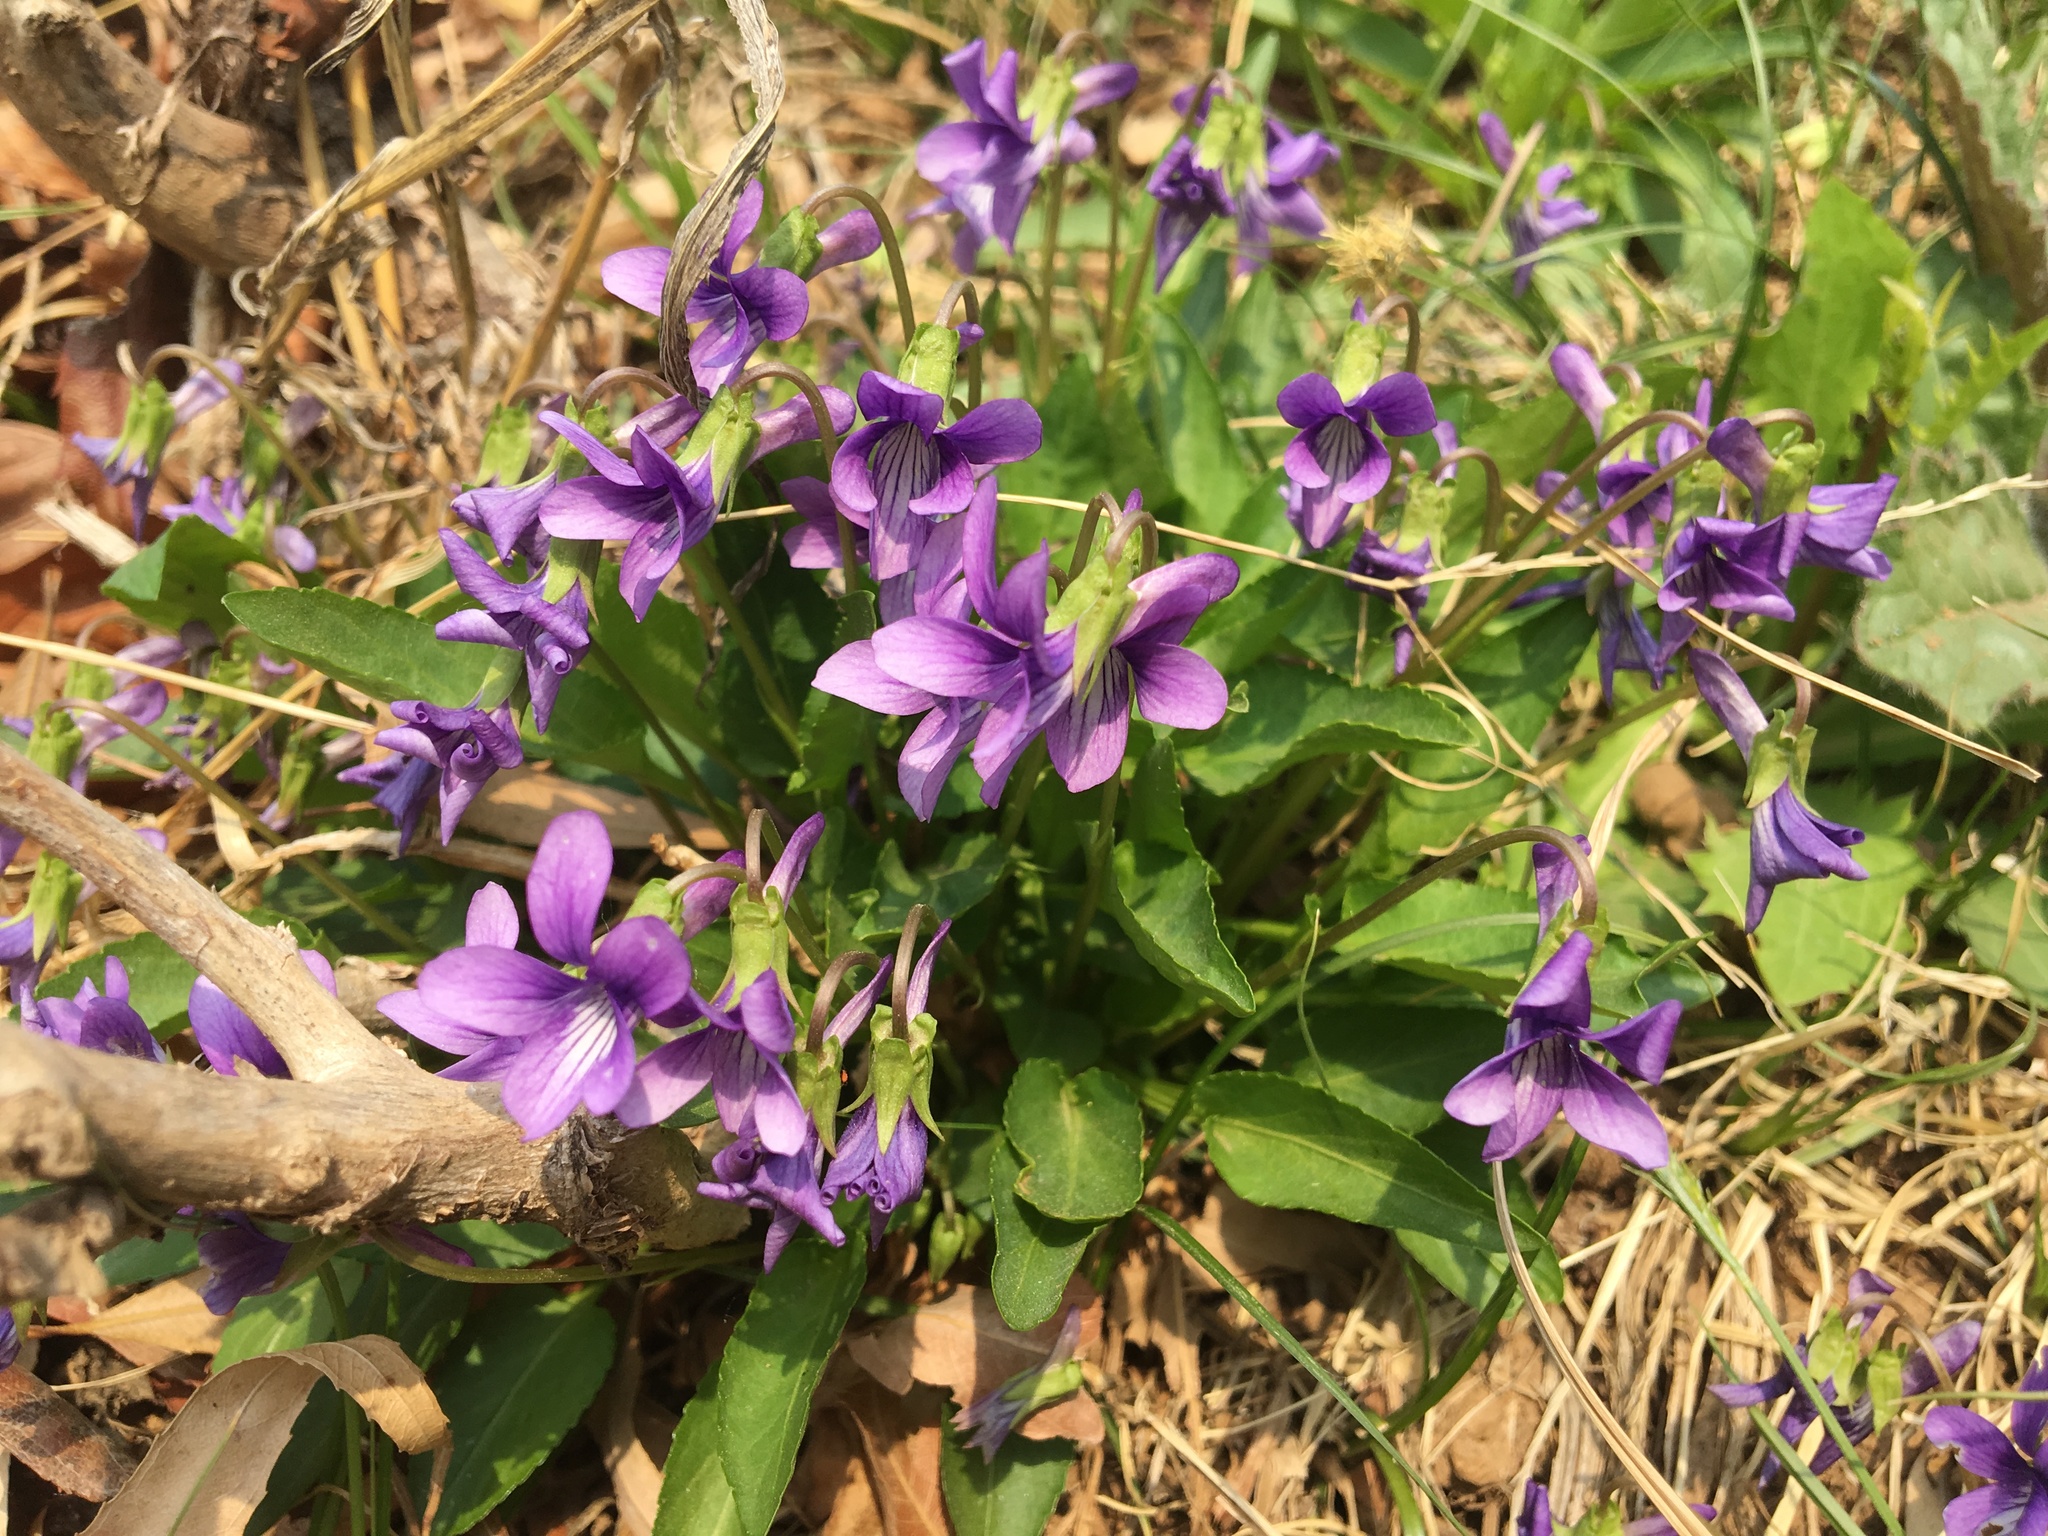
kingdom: Plantae
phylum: Tracheophyta
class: Magnoliopsida
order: Malpighiales
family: Violaceae
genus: Viola
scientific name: Viola philippica
